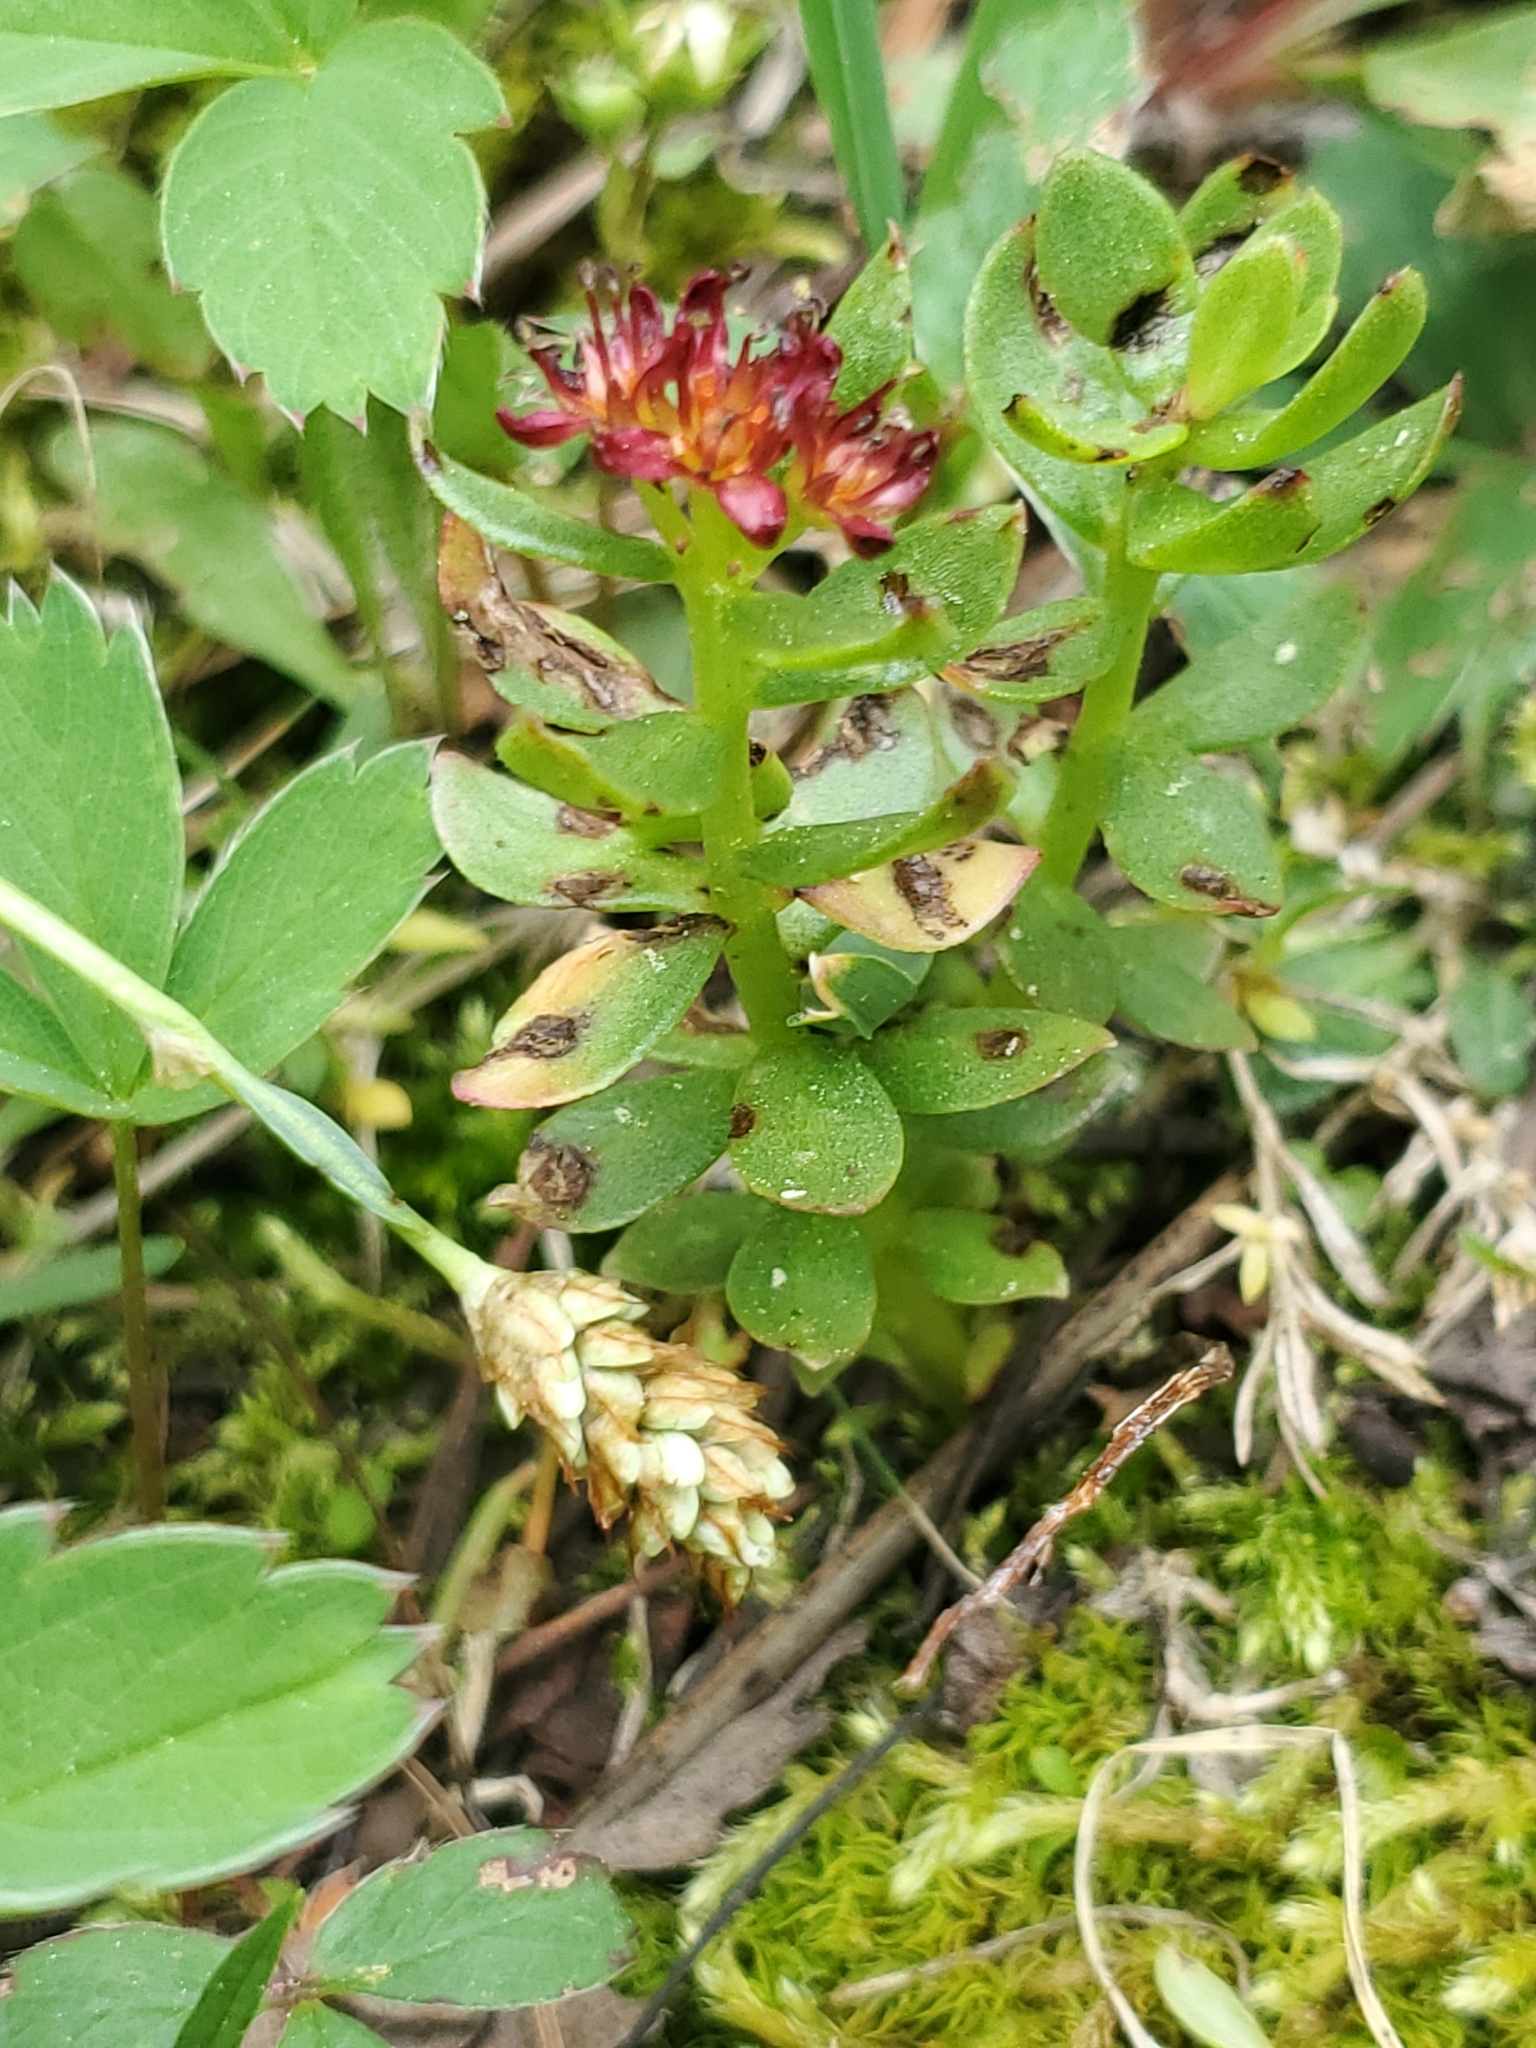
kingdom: Plantae
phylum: Tracheophyta
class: Magnoliopsida
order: Saxifragales
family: Crassulaceae
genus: Rhodiola
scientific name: Rhodiola integrifolia
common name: Western roseroot
